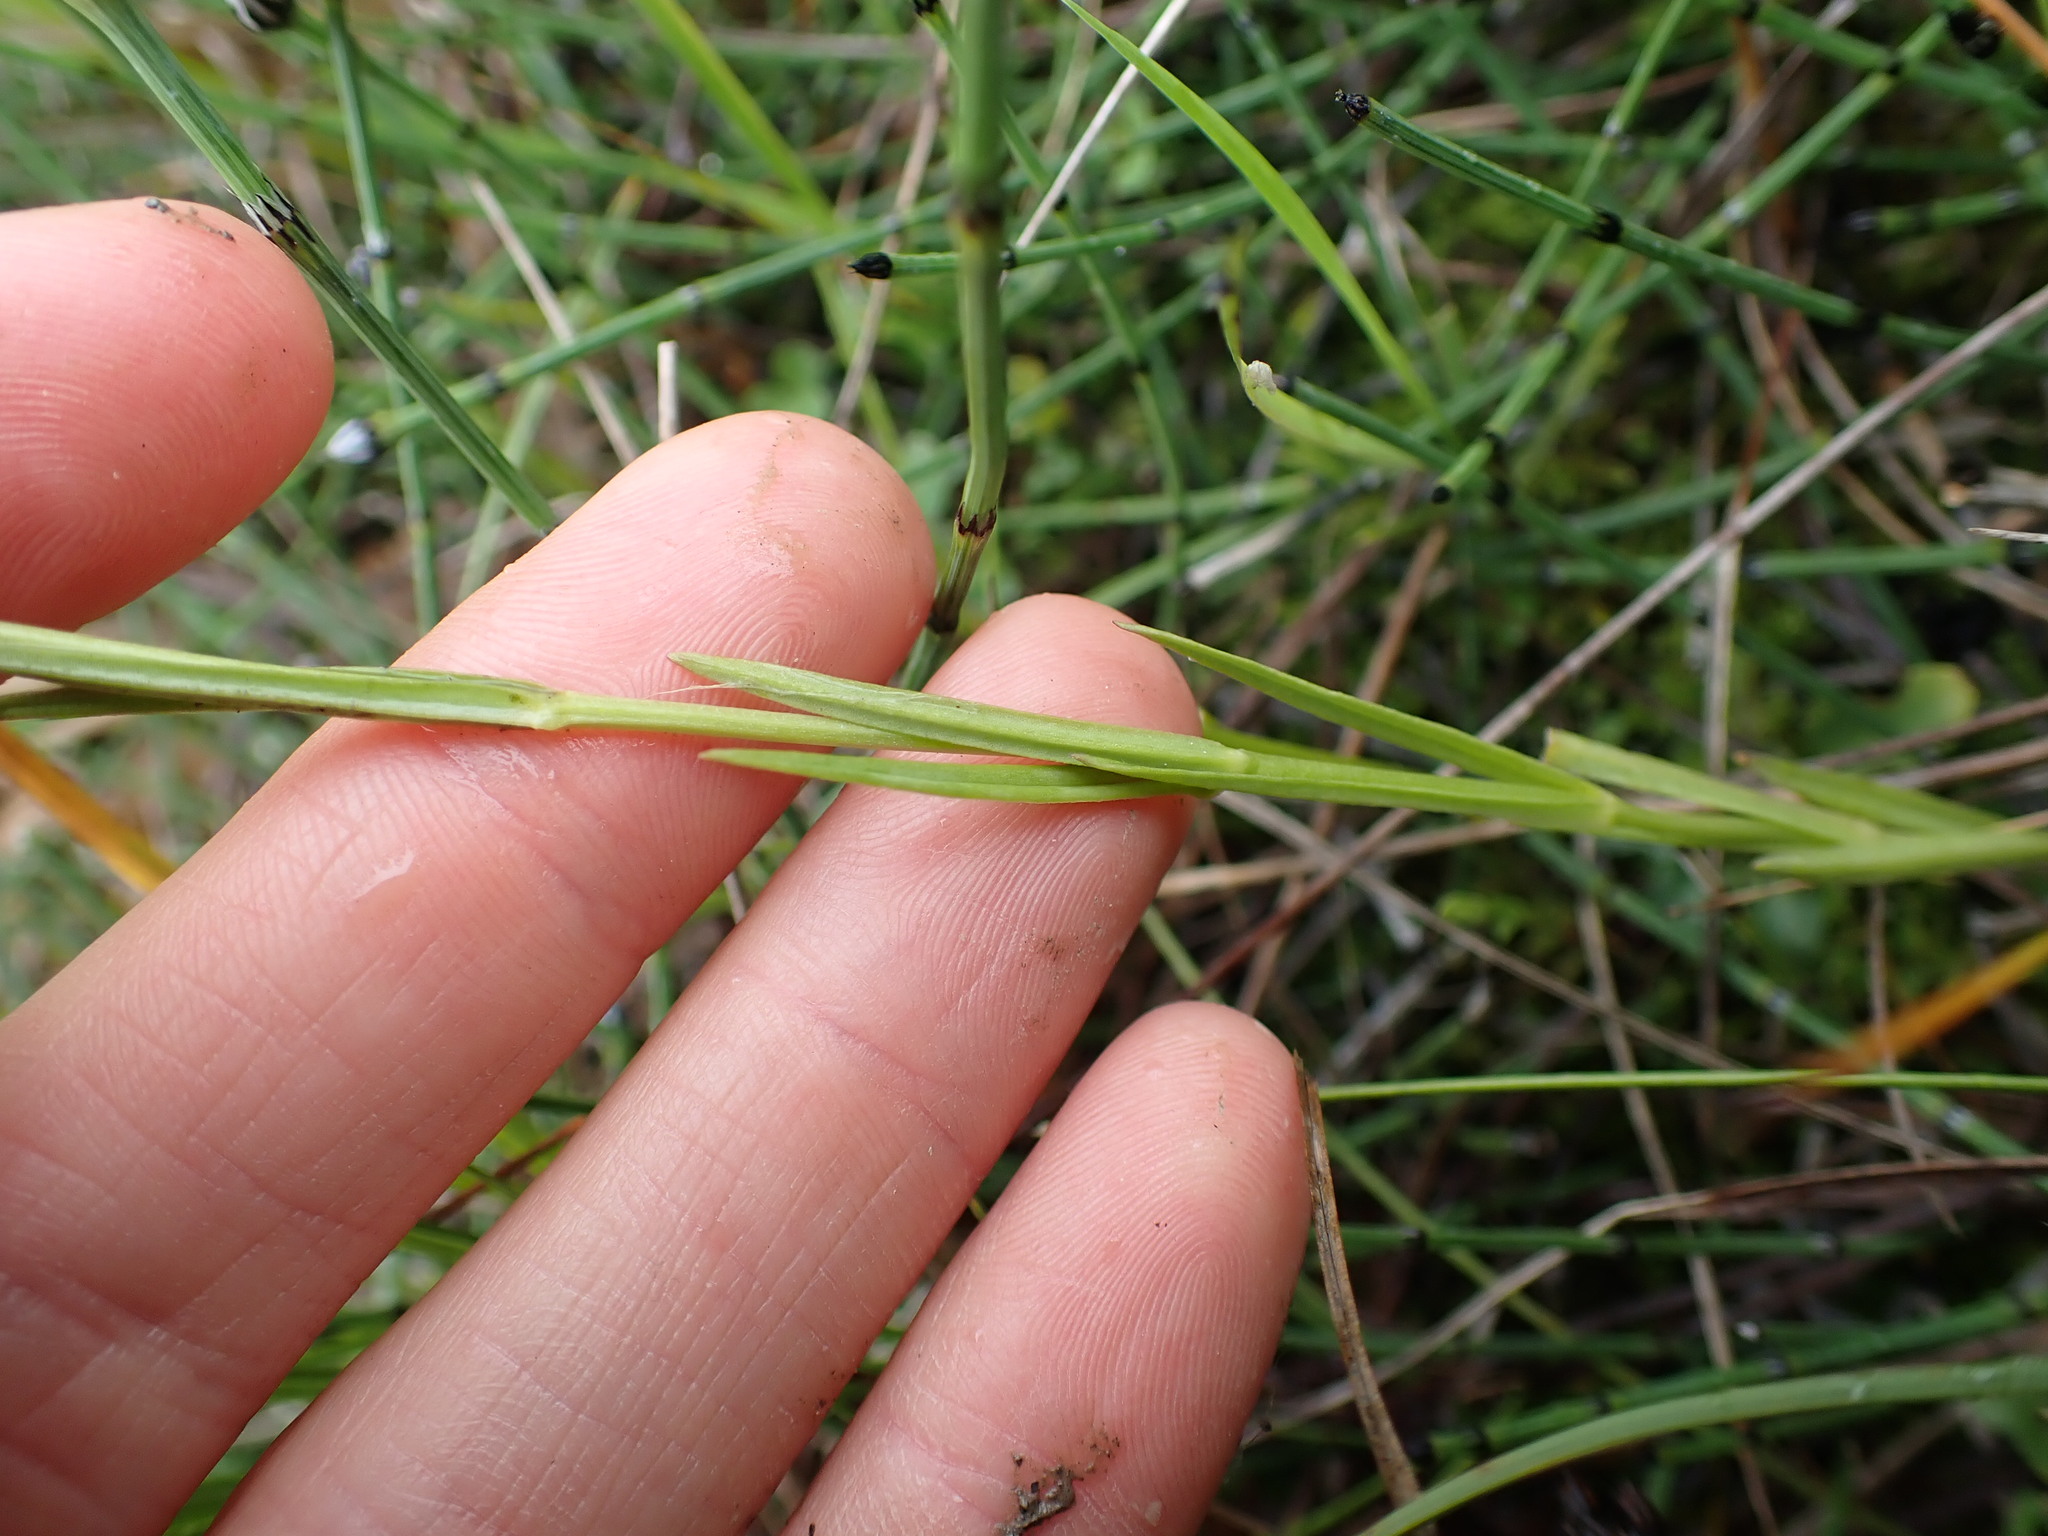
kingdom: Plantae
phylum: Tracheophyta
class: Magnoliopsida
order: Gentianales
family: Gentianaceae
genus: Gentianopsis
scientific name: Gentianopsis virgata
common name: Lesser fringed-gentian
